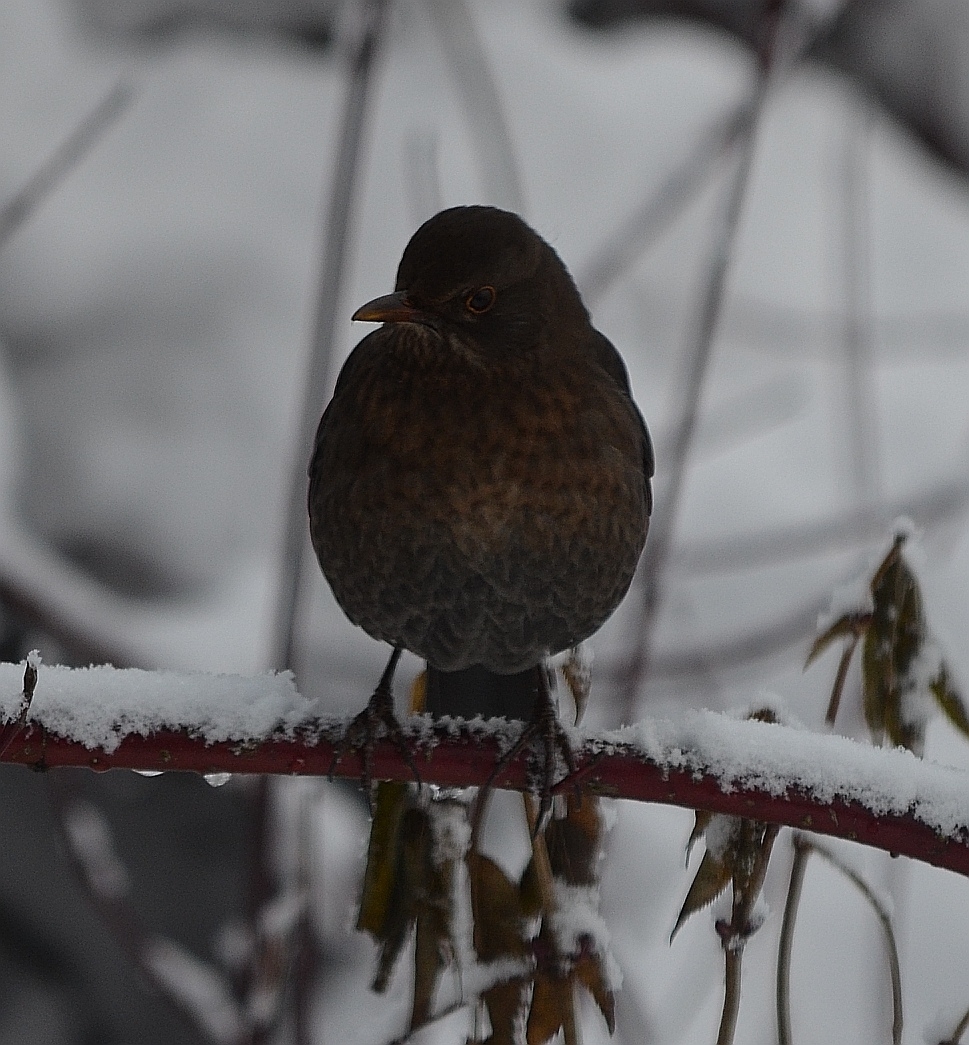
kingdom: Animalia
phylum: Chordata
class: Aves
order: Passeriformes
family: Turdidae
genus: Turdus
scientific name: Turdus merula
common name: Common blackbird
